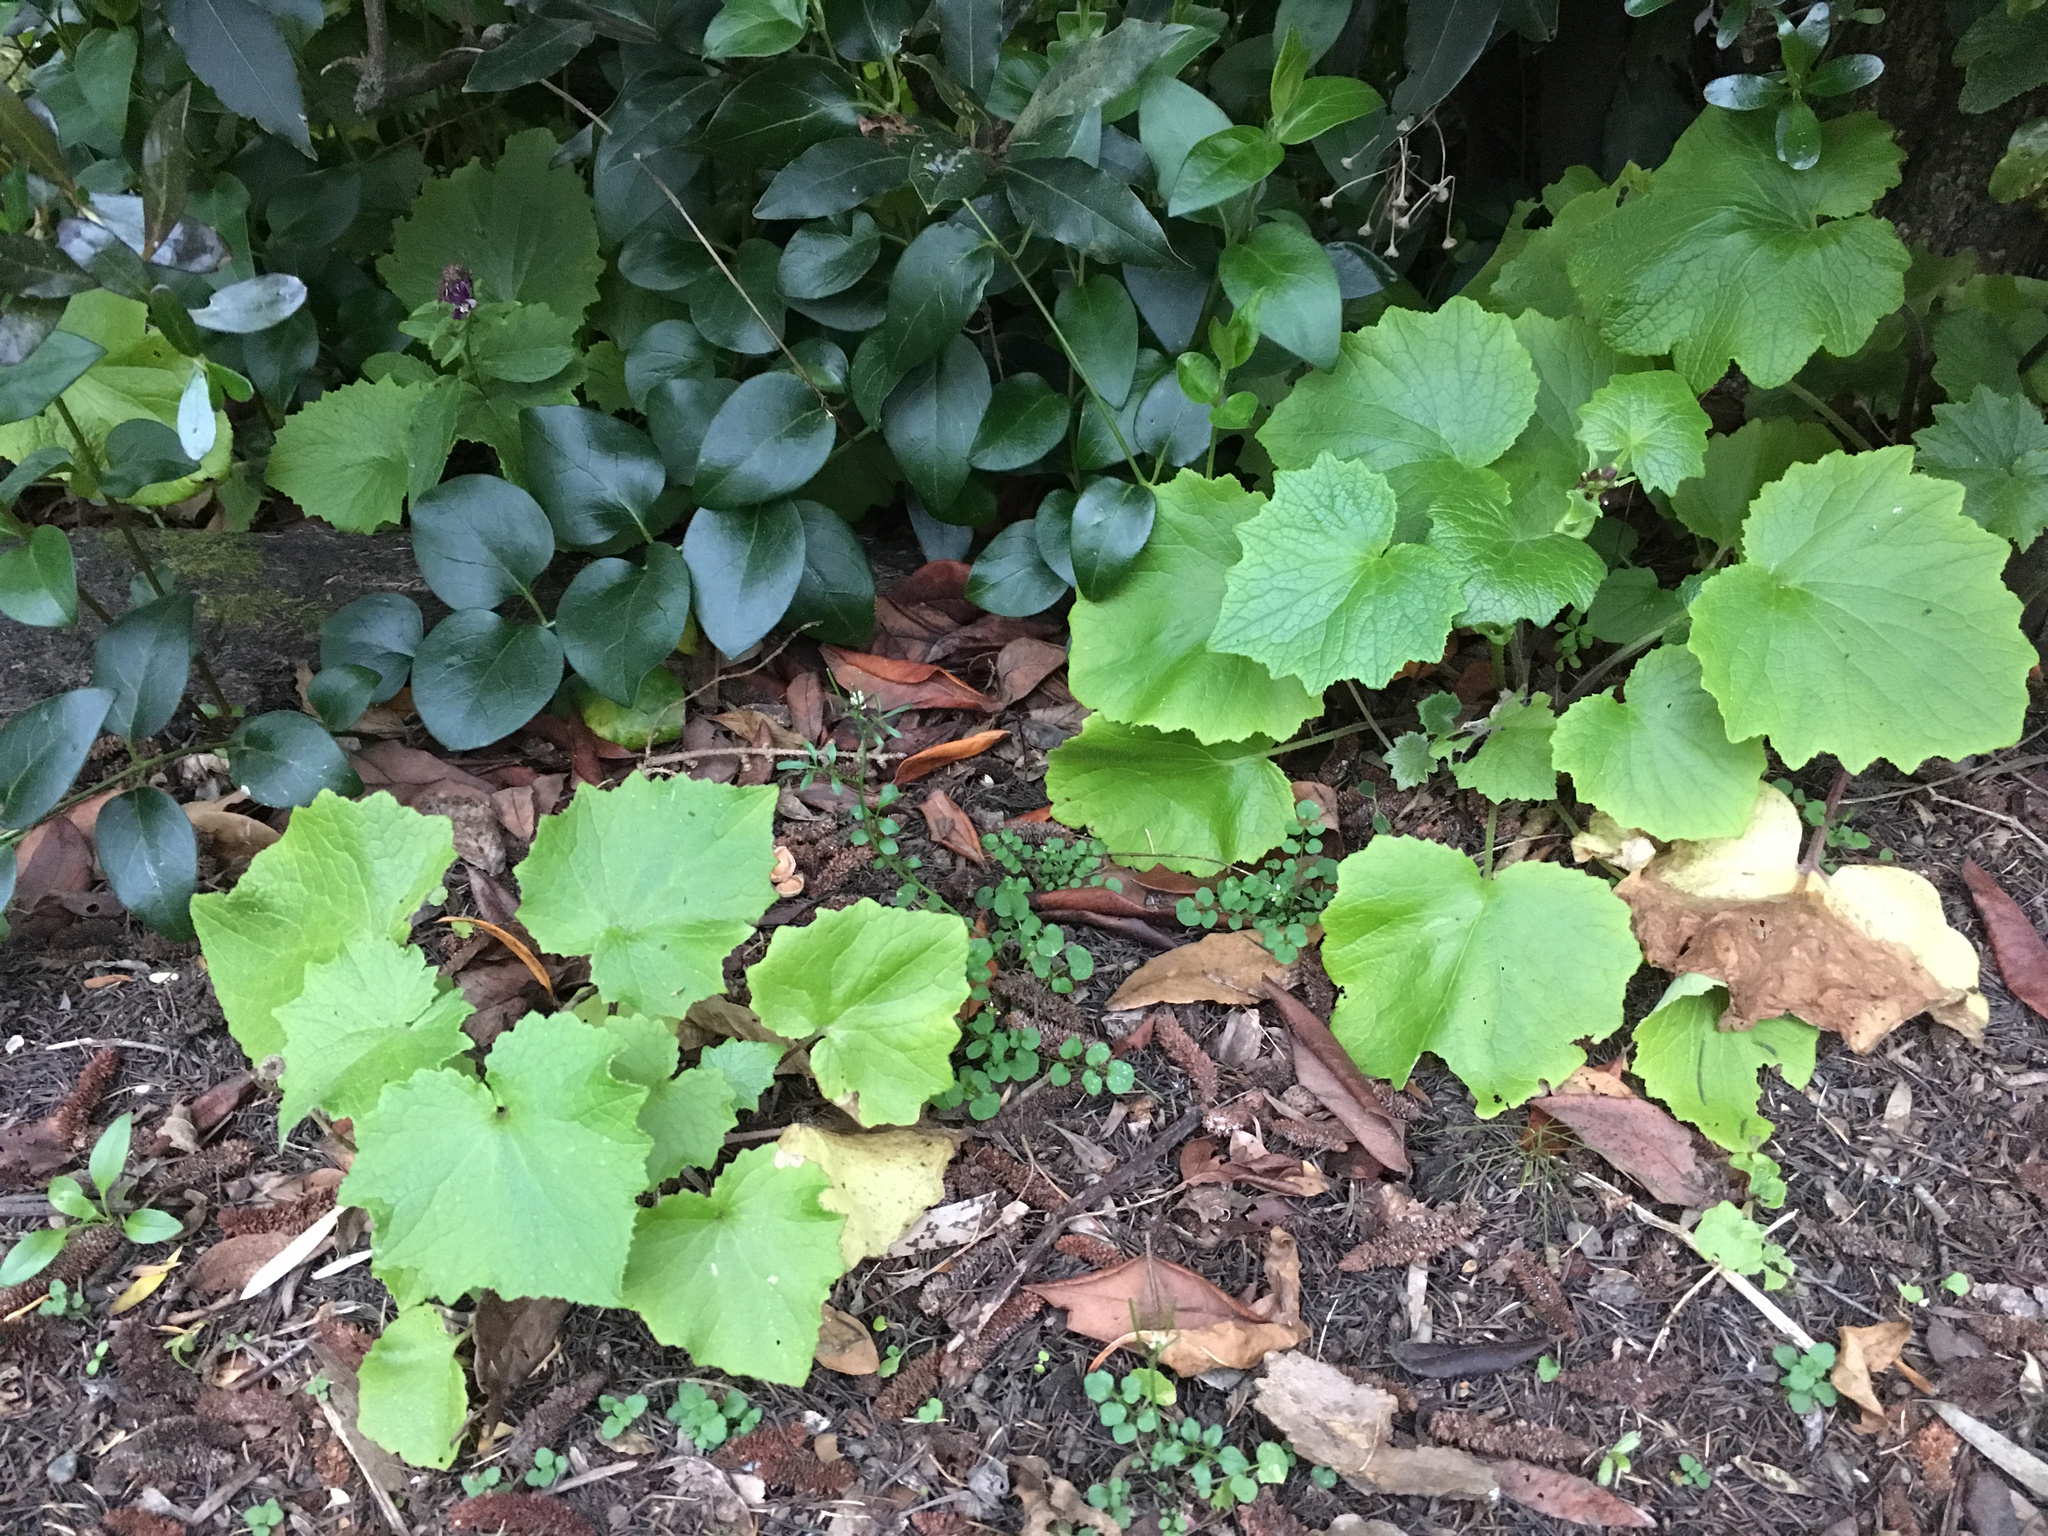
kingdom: Plantae
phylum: Tracheophyta
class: Magnoliopsida
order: Asterales
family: Asteraceae
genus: Pericallis
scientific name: Pericallis hybrida
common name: Cineraria
